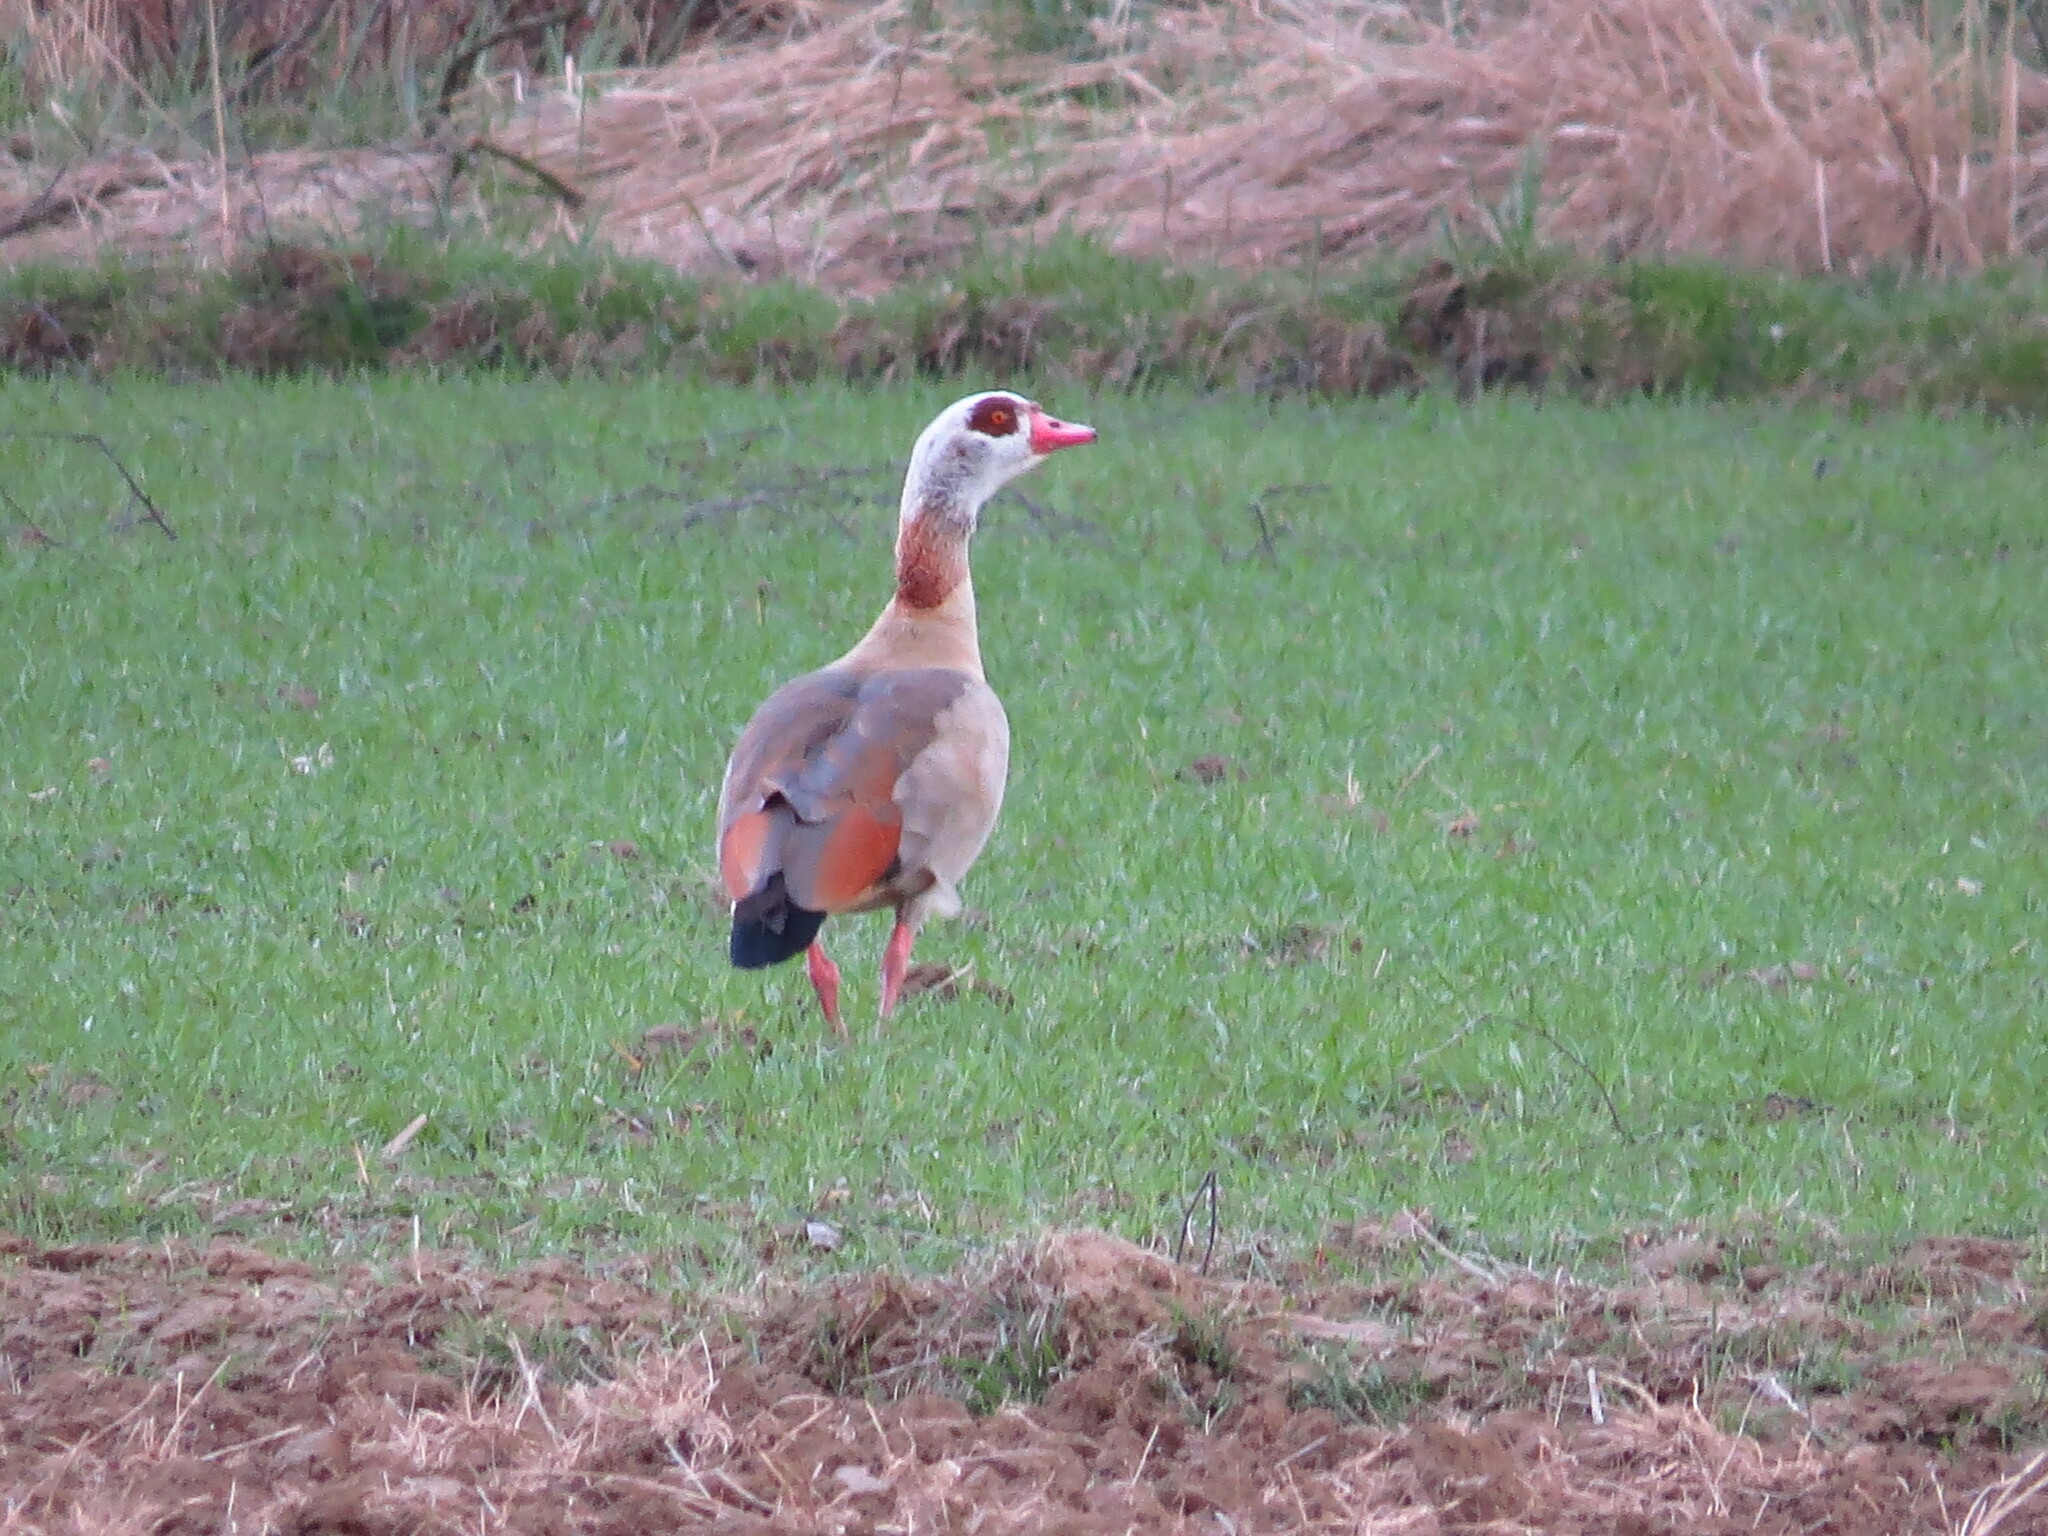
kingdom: Animalia
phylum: Chordata
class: Aves
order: Anseriformes
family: Anatidae
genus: Alopochen
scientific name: Alopochen aegyptiaca
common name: Egyptian goose
